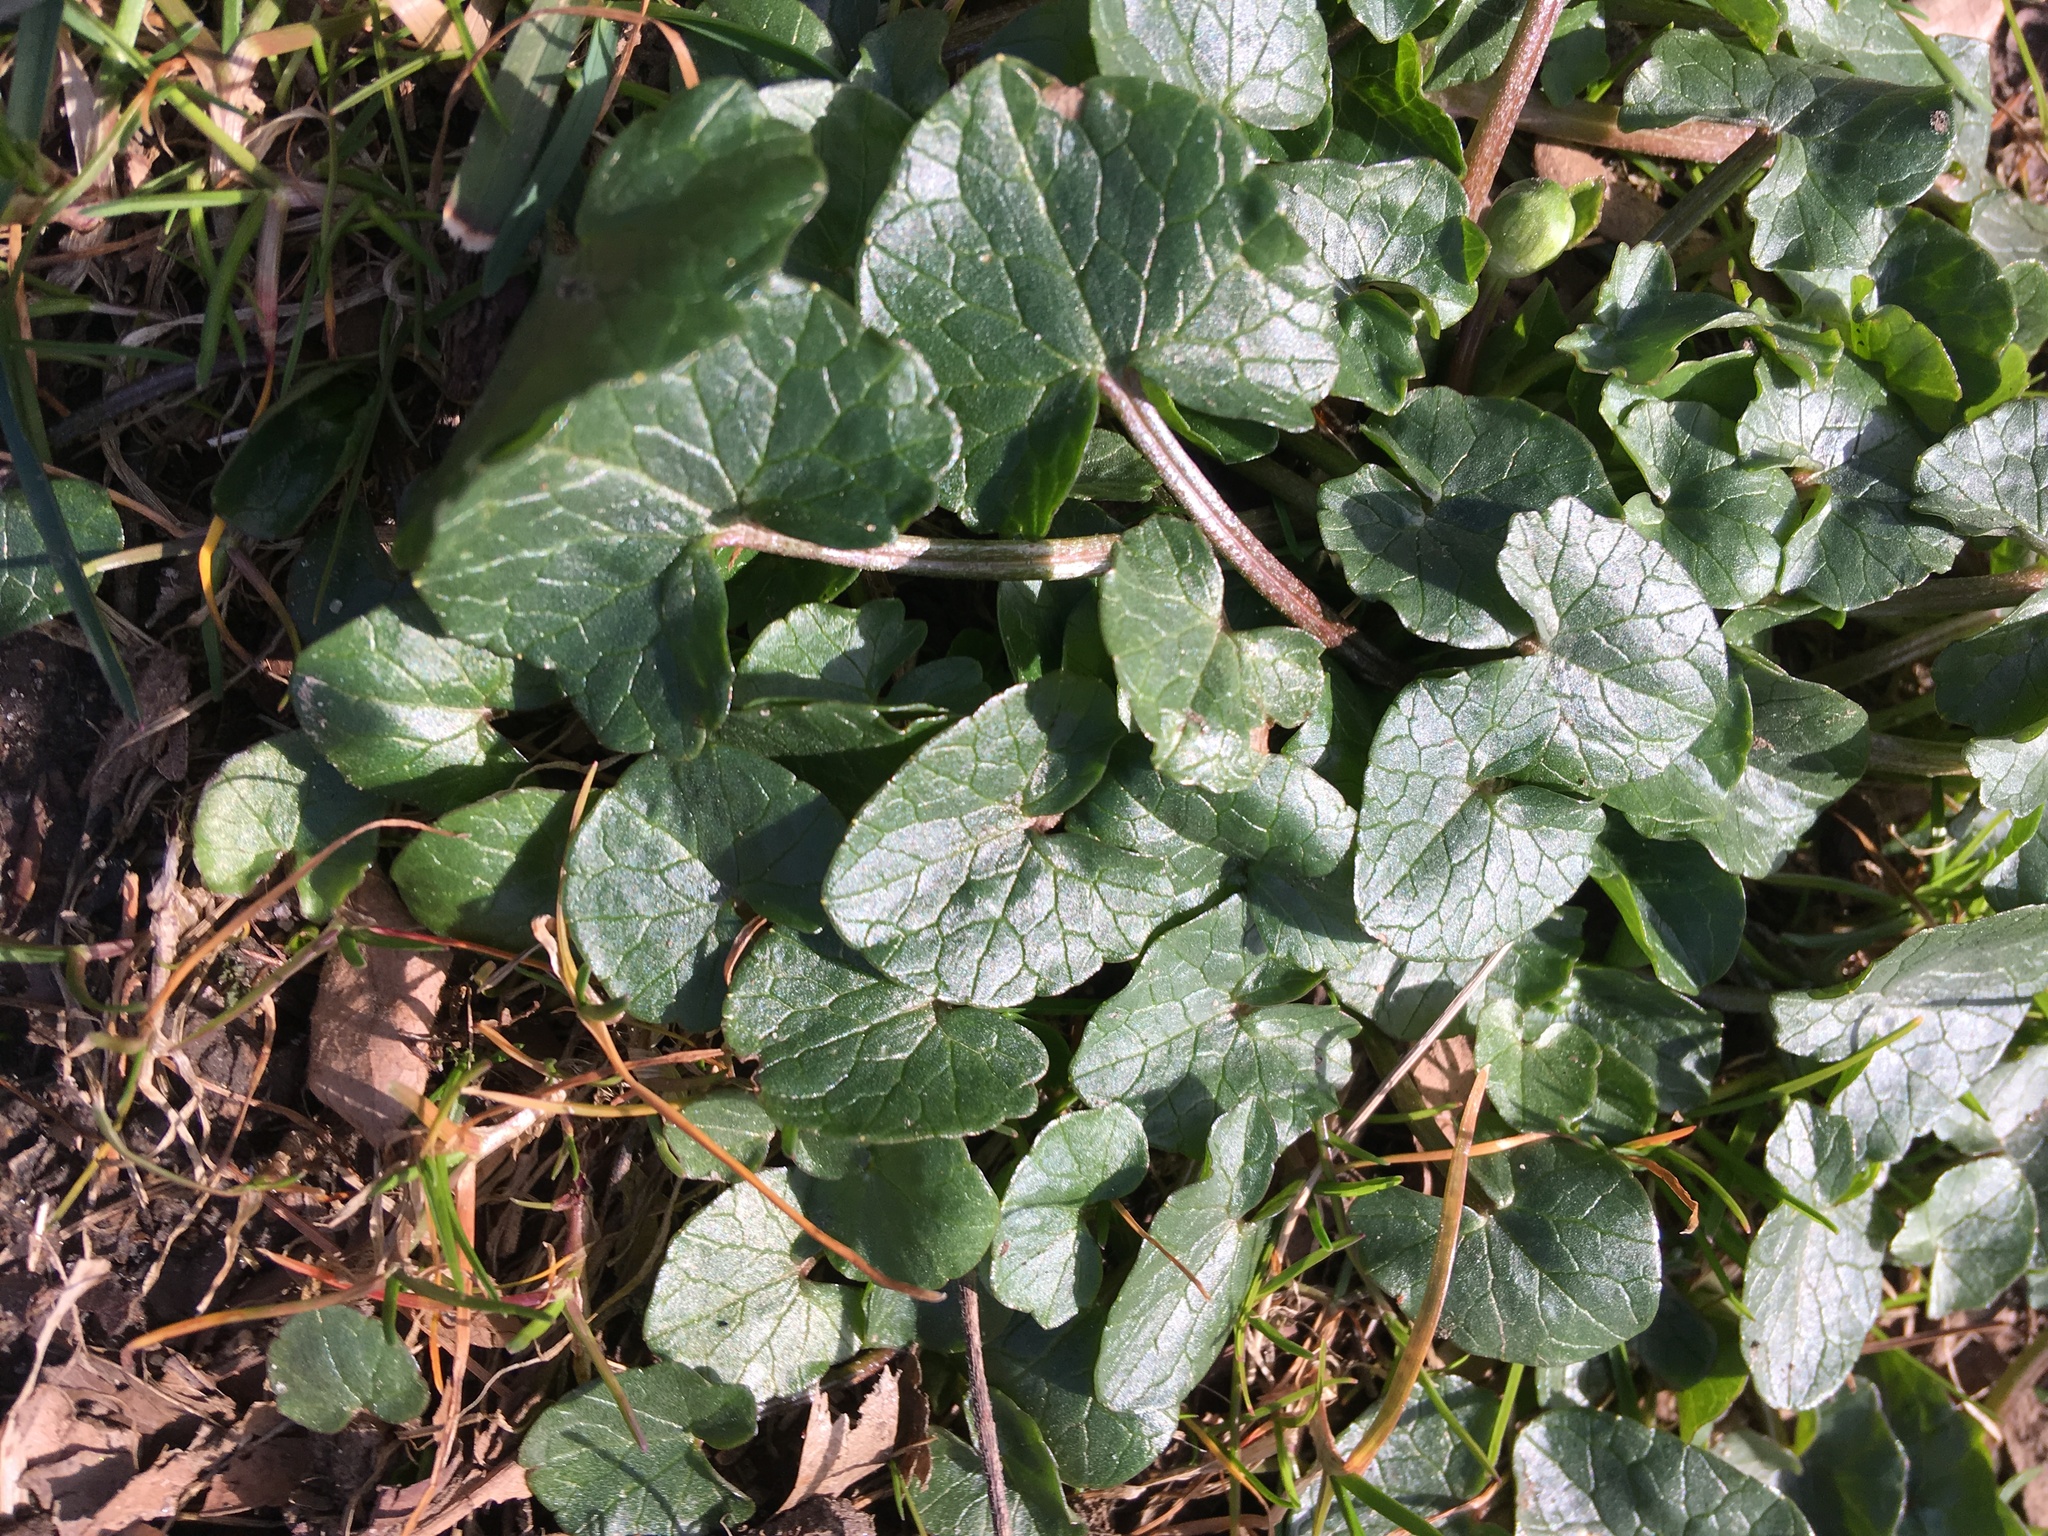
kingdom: Plantae
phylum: Tracheophyta
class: Magnoliopsida
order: Ranunculales
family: Ranunculaceae
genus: Ficaria
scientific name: Ficaria verna
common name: Lesser celandine
